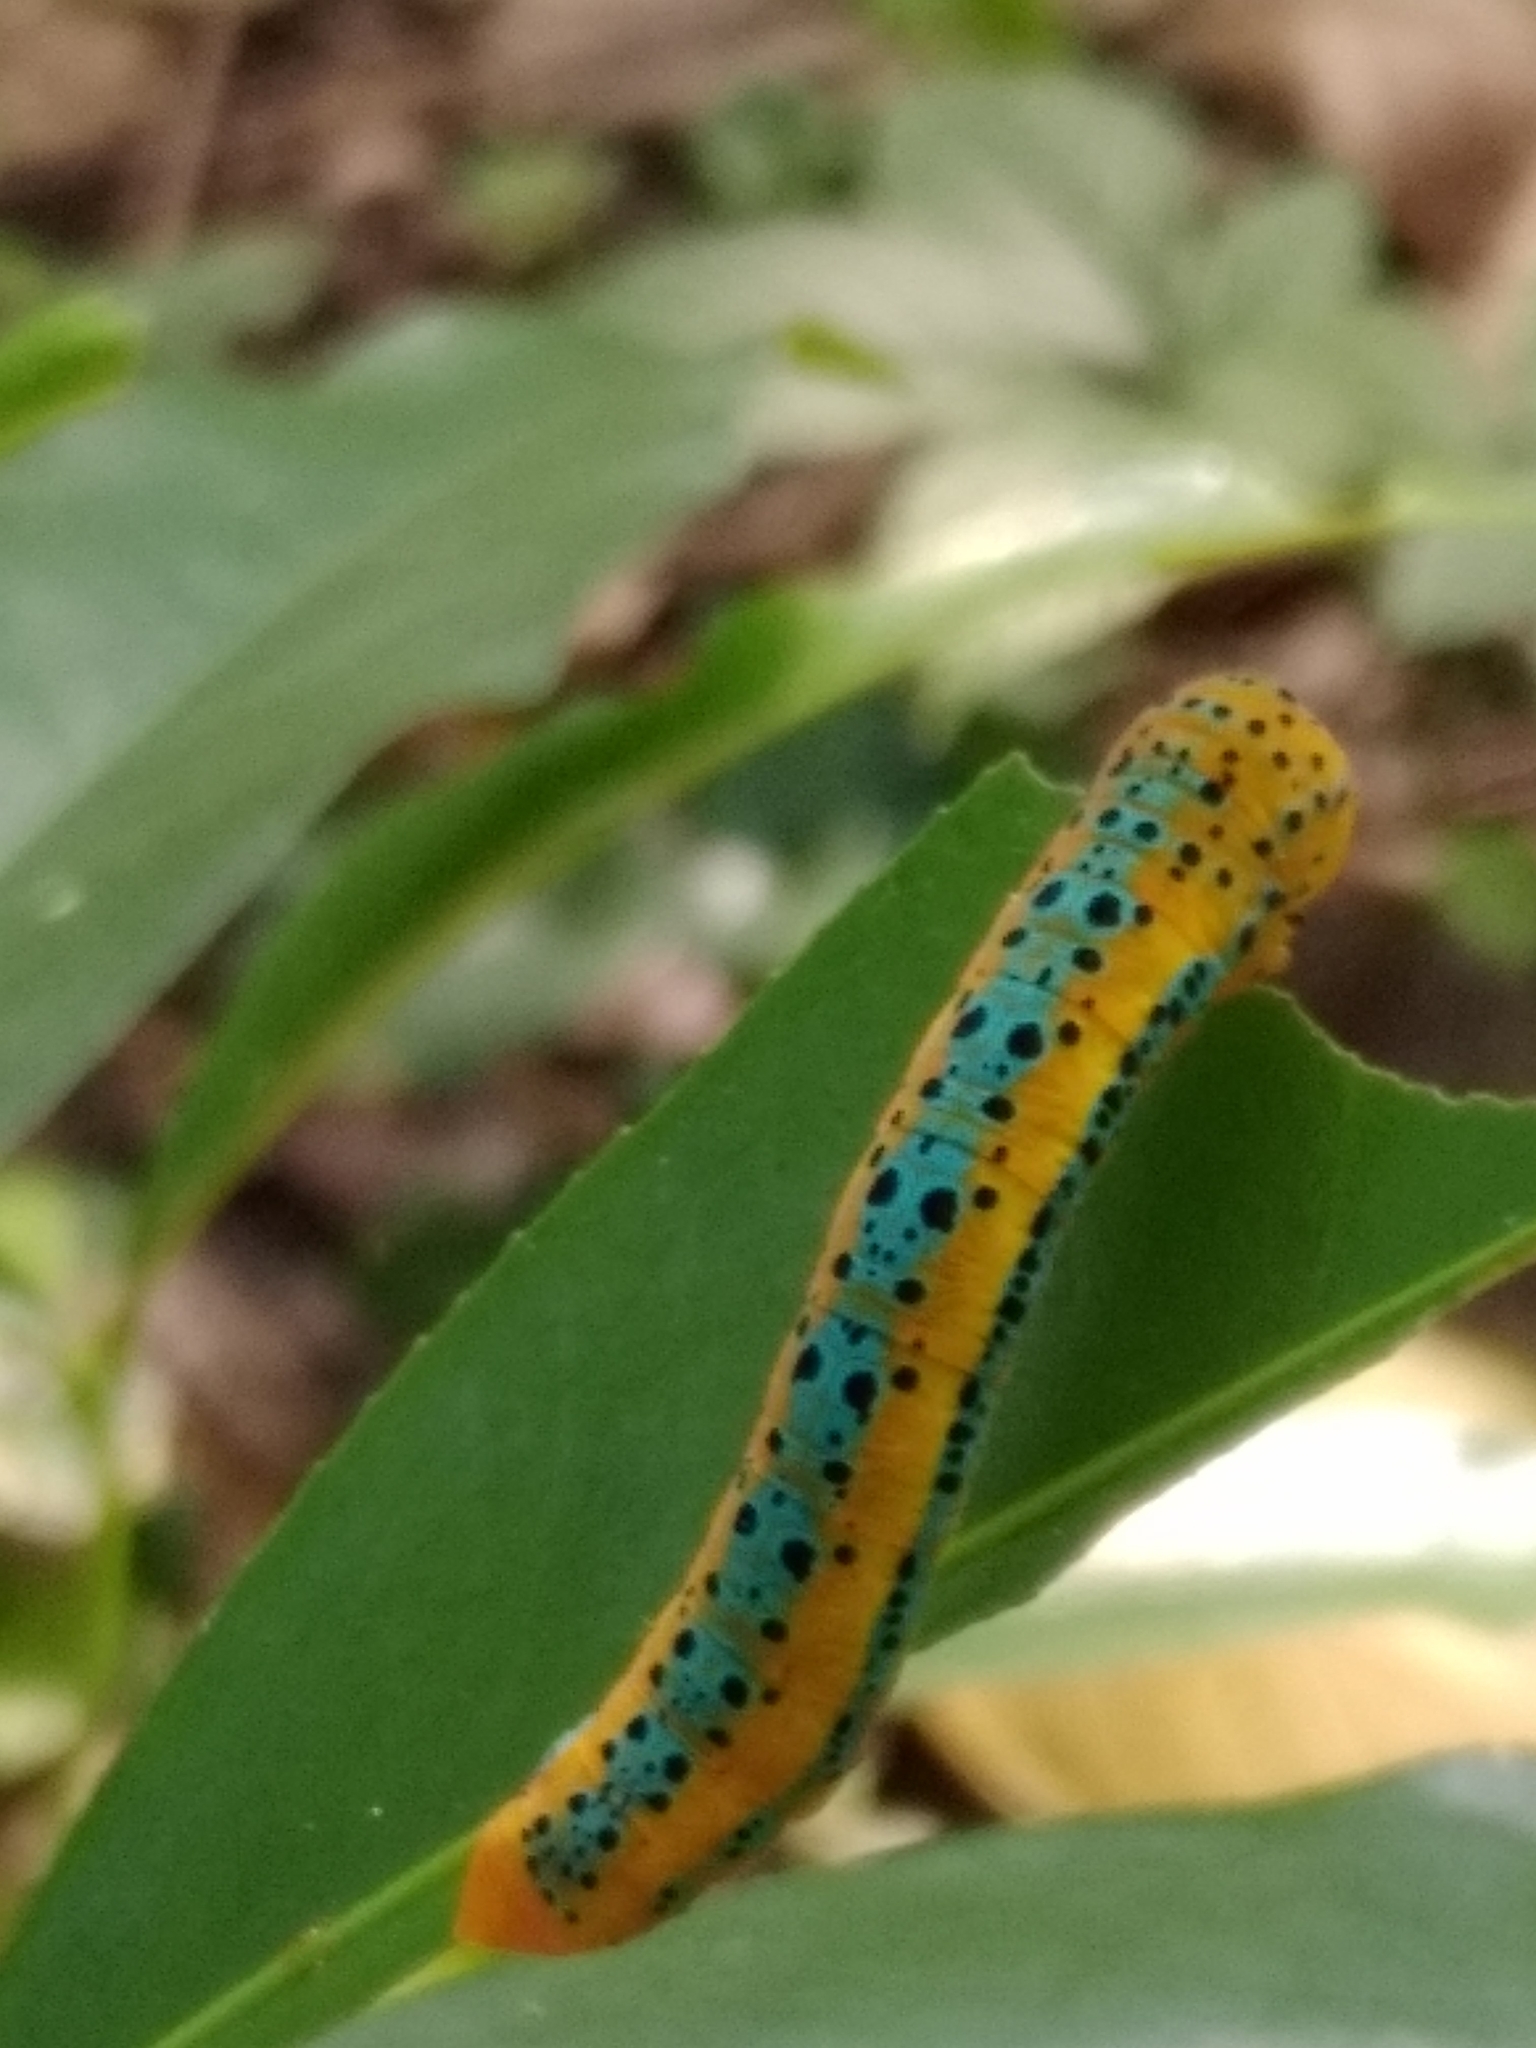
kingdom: Animalia
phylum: Arthropoda
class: Insecta
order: Lepidoptera
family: Geometridae
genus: Dysphania
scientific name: Dysphania percota
